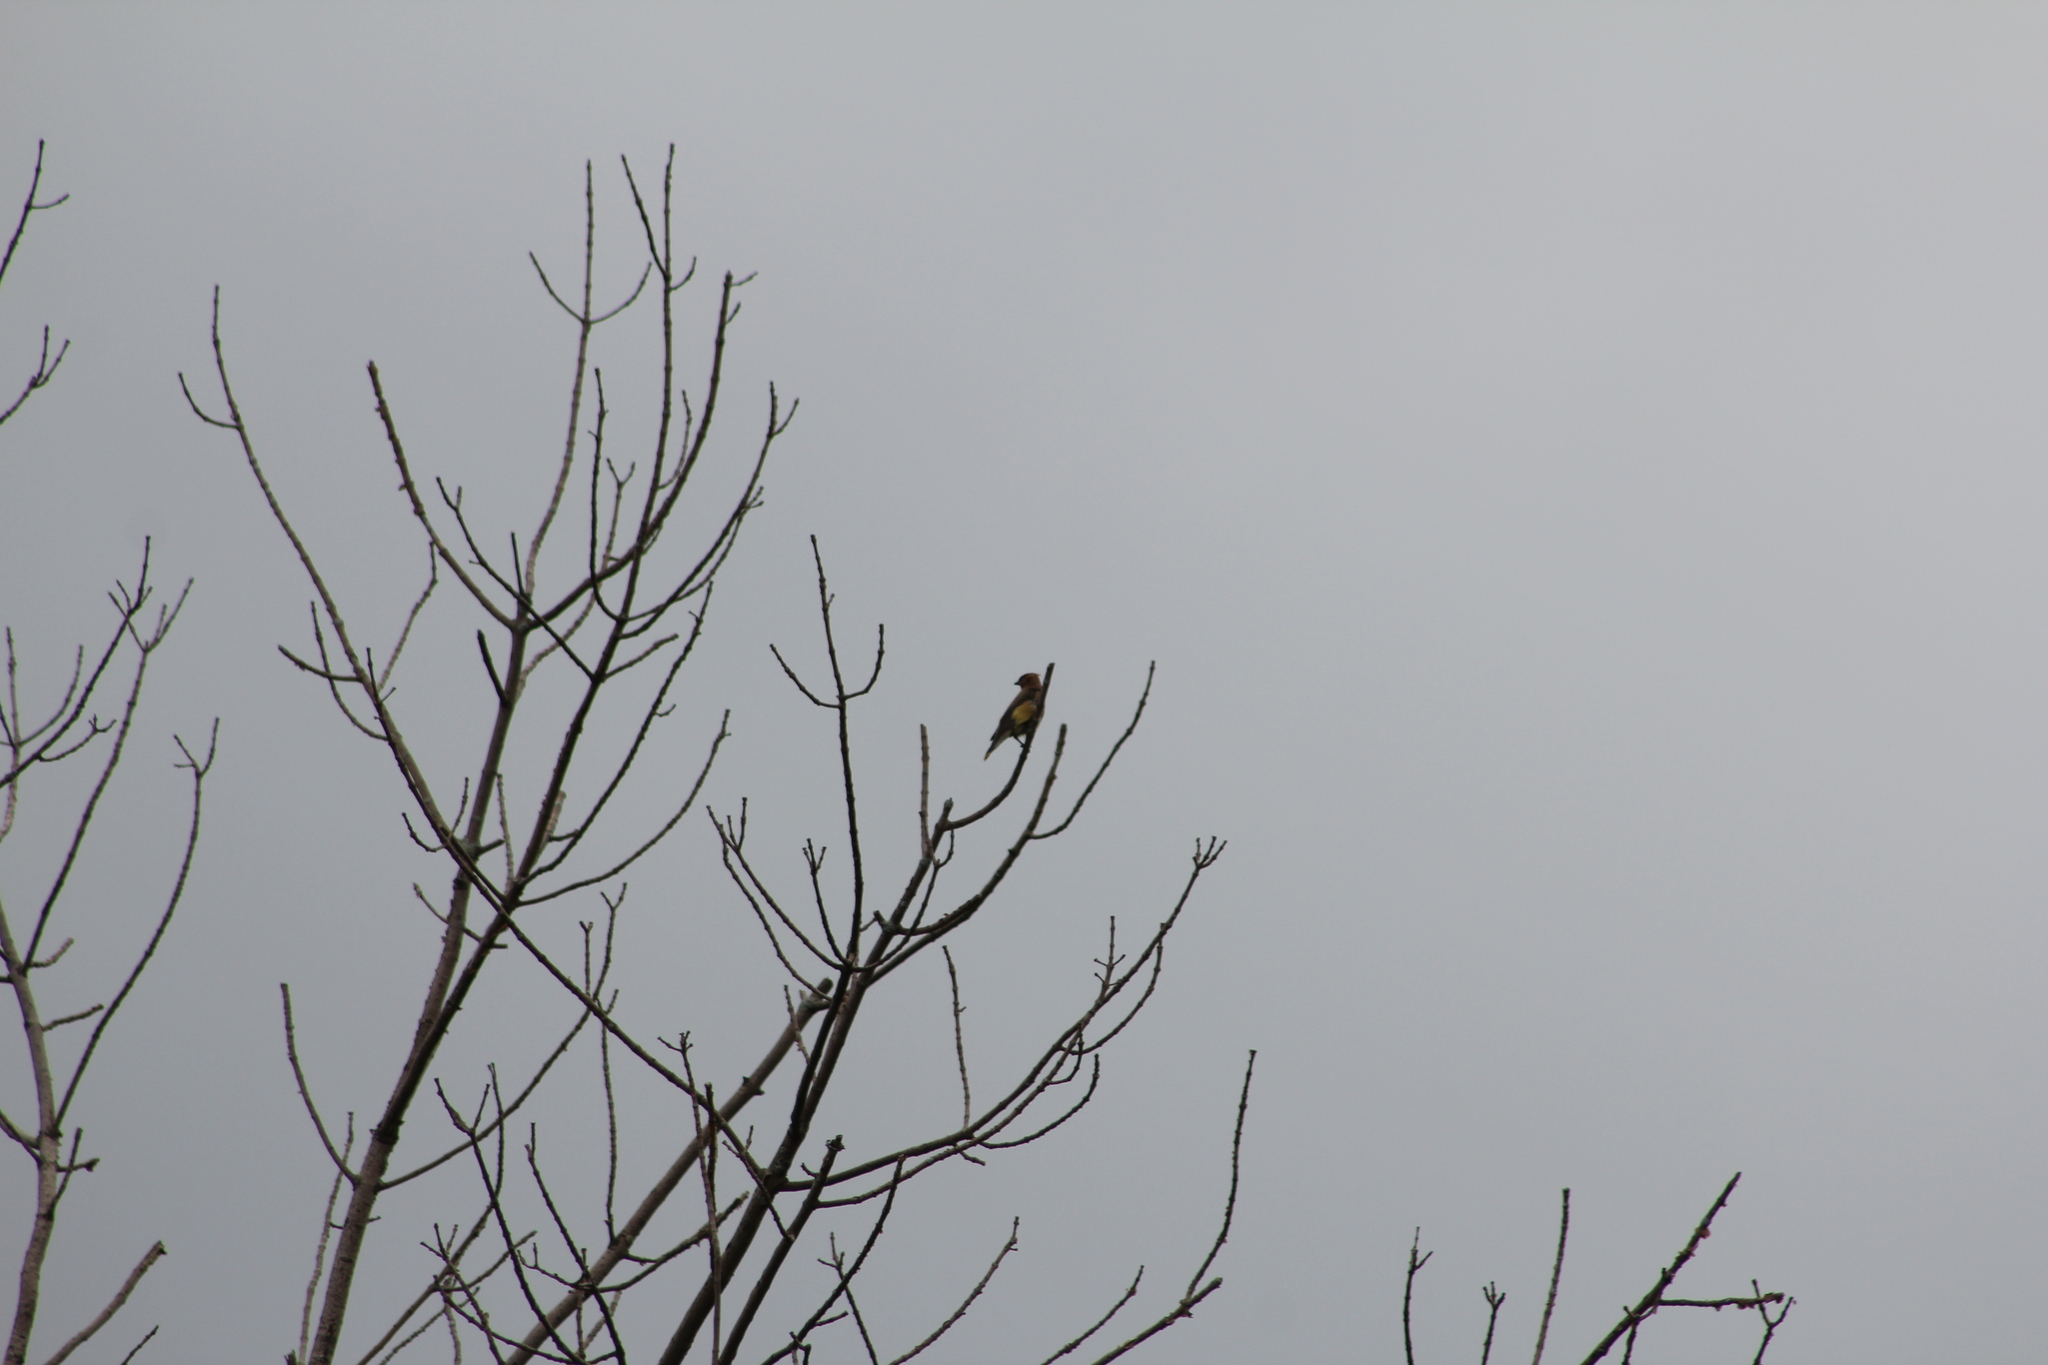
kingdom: Animalia
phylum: Chordata
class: Aves
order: Passeriformes
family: Bombycillidae
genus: Bombycilla
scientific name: Bombycilla cedrorum
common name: Cedar waxwing
